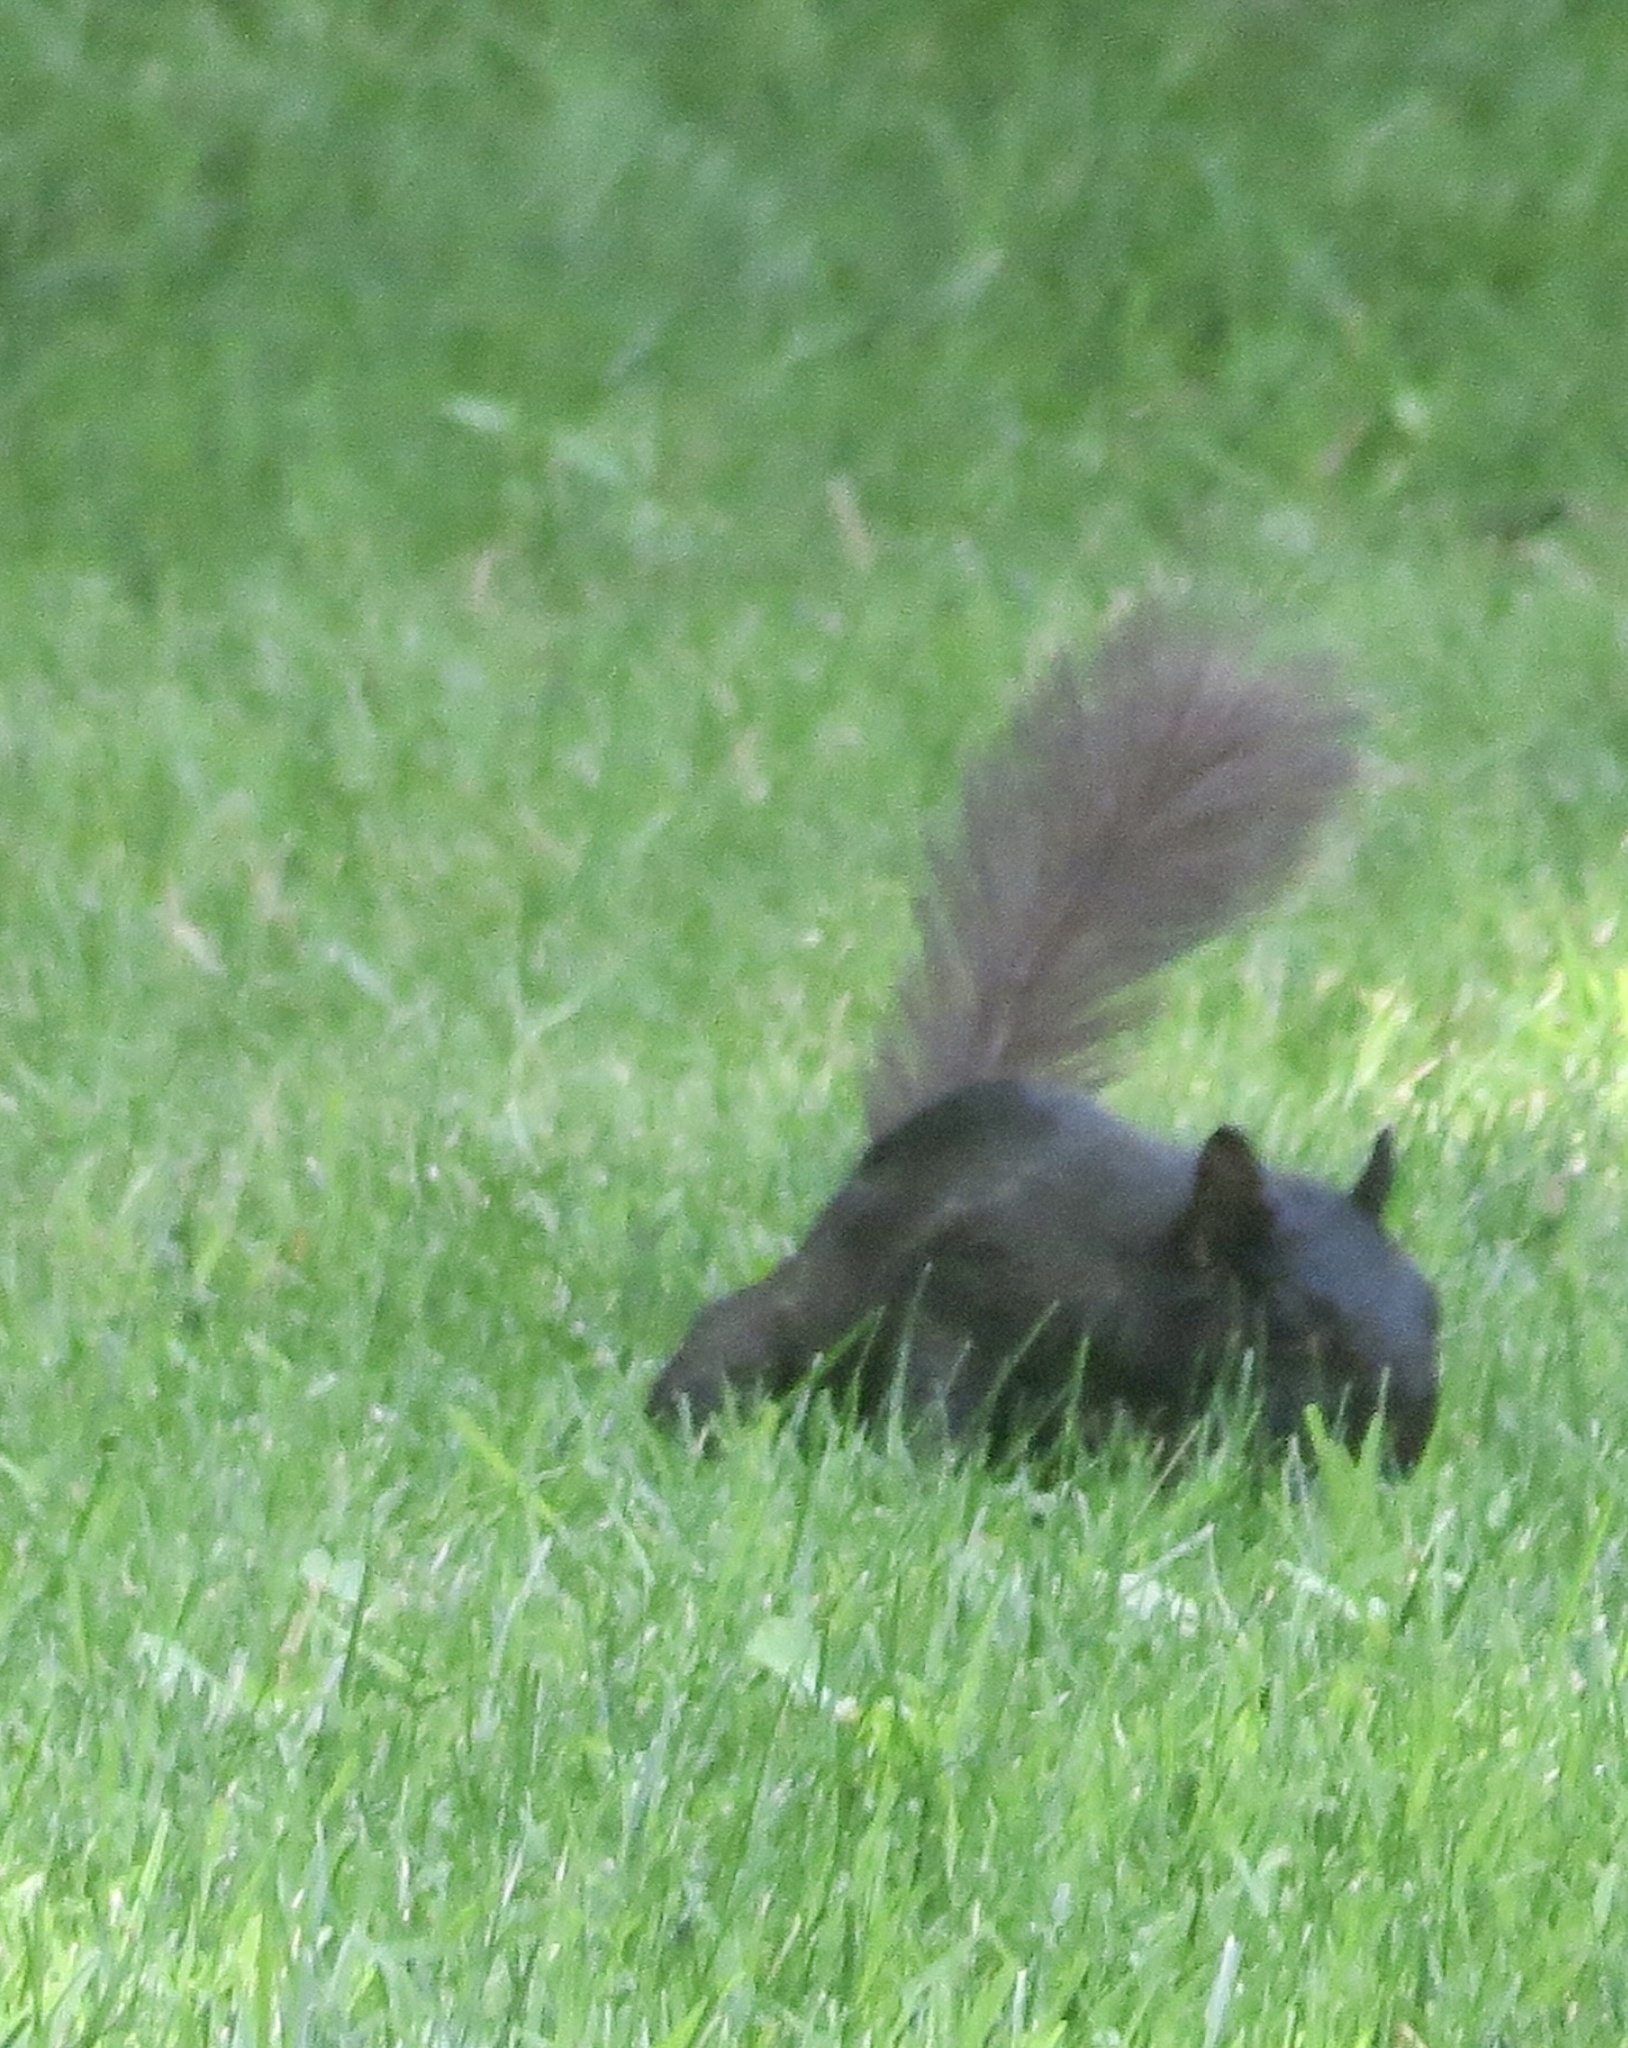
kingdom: Animalia
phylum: Chordata
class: Mammalia
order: Rodentia
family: Sciuridae
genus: Sciurus
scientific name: Sciurus carolinensis
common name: Eastern gray squirrel
